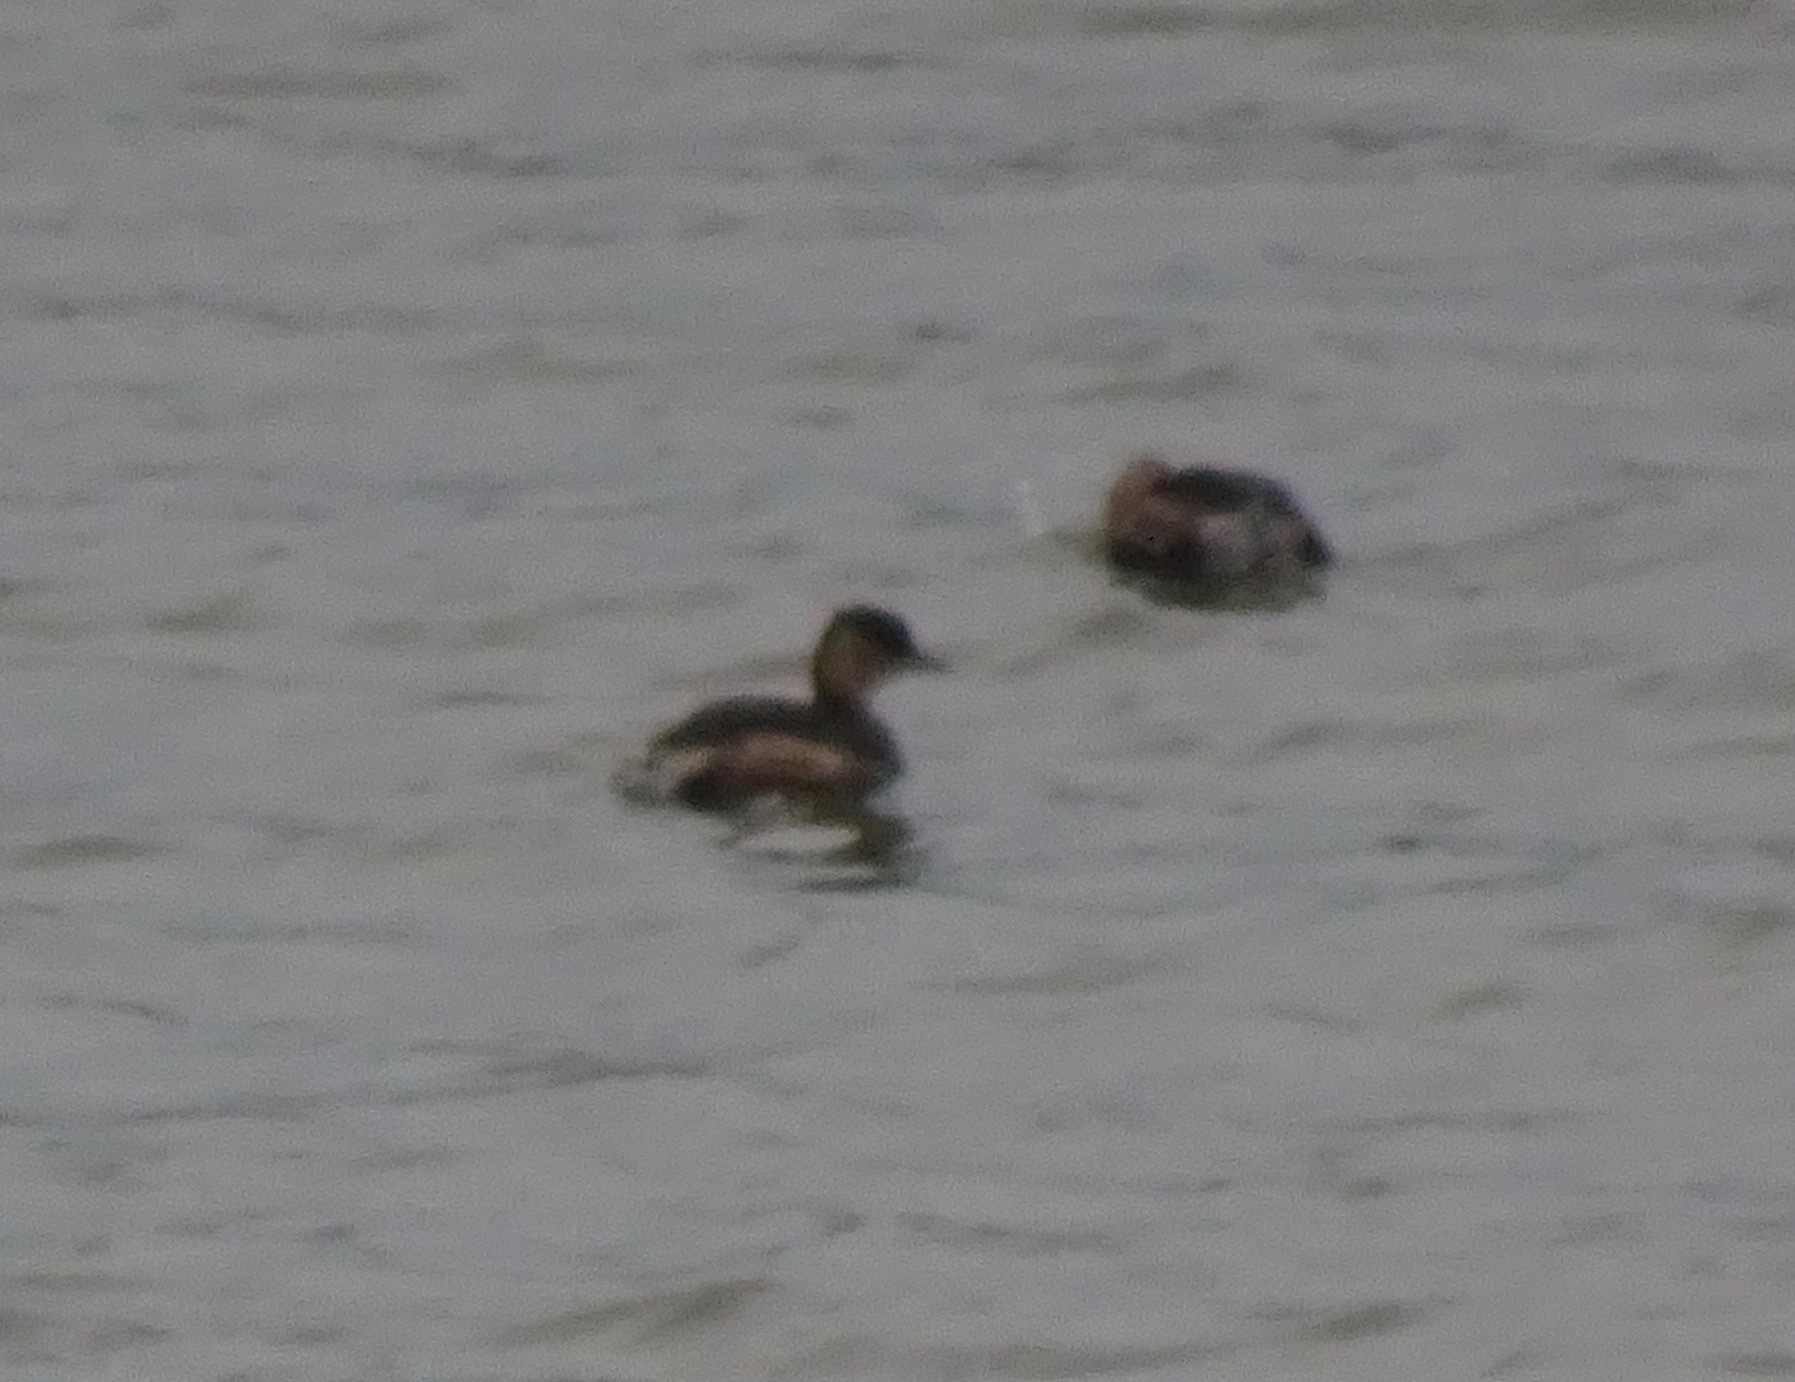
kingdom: Animalia
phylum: Chordata
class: Aves
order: Podicipediformes
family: Podicipedidae
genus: Tachybaptus
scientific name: Tachybaptus ruficollis
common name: Little grebe
